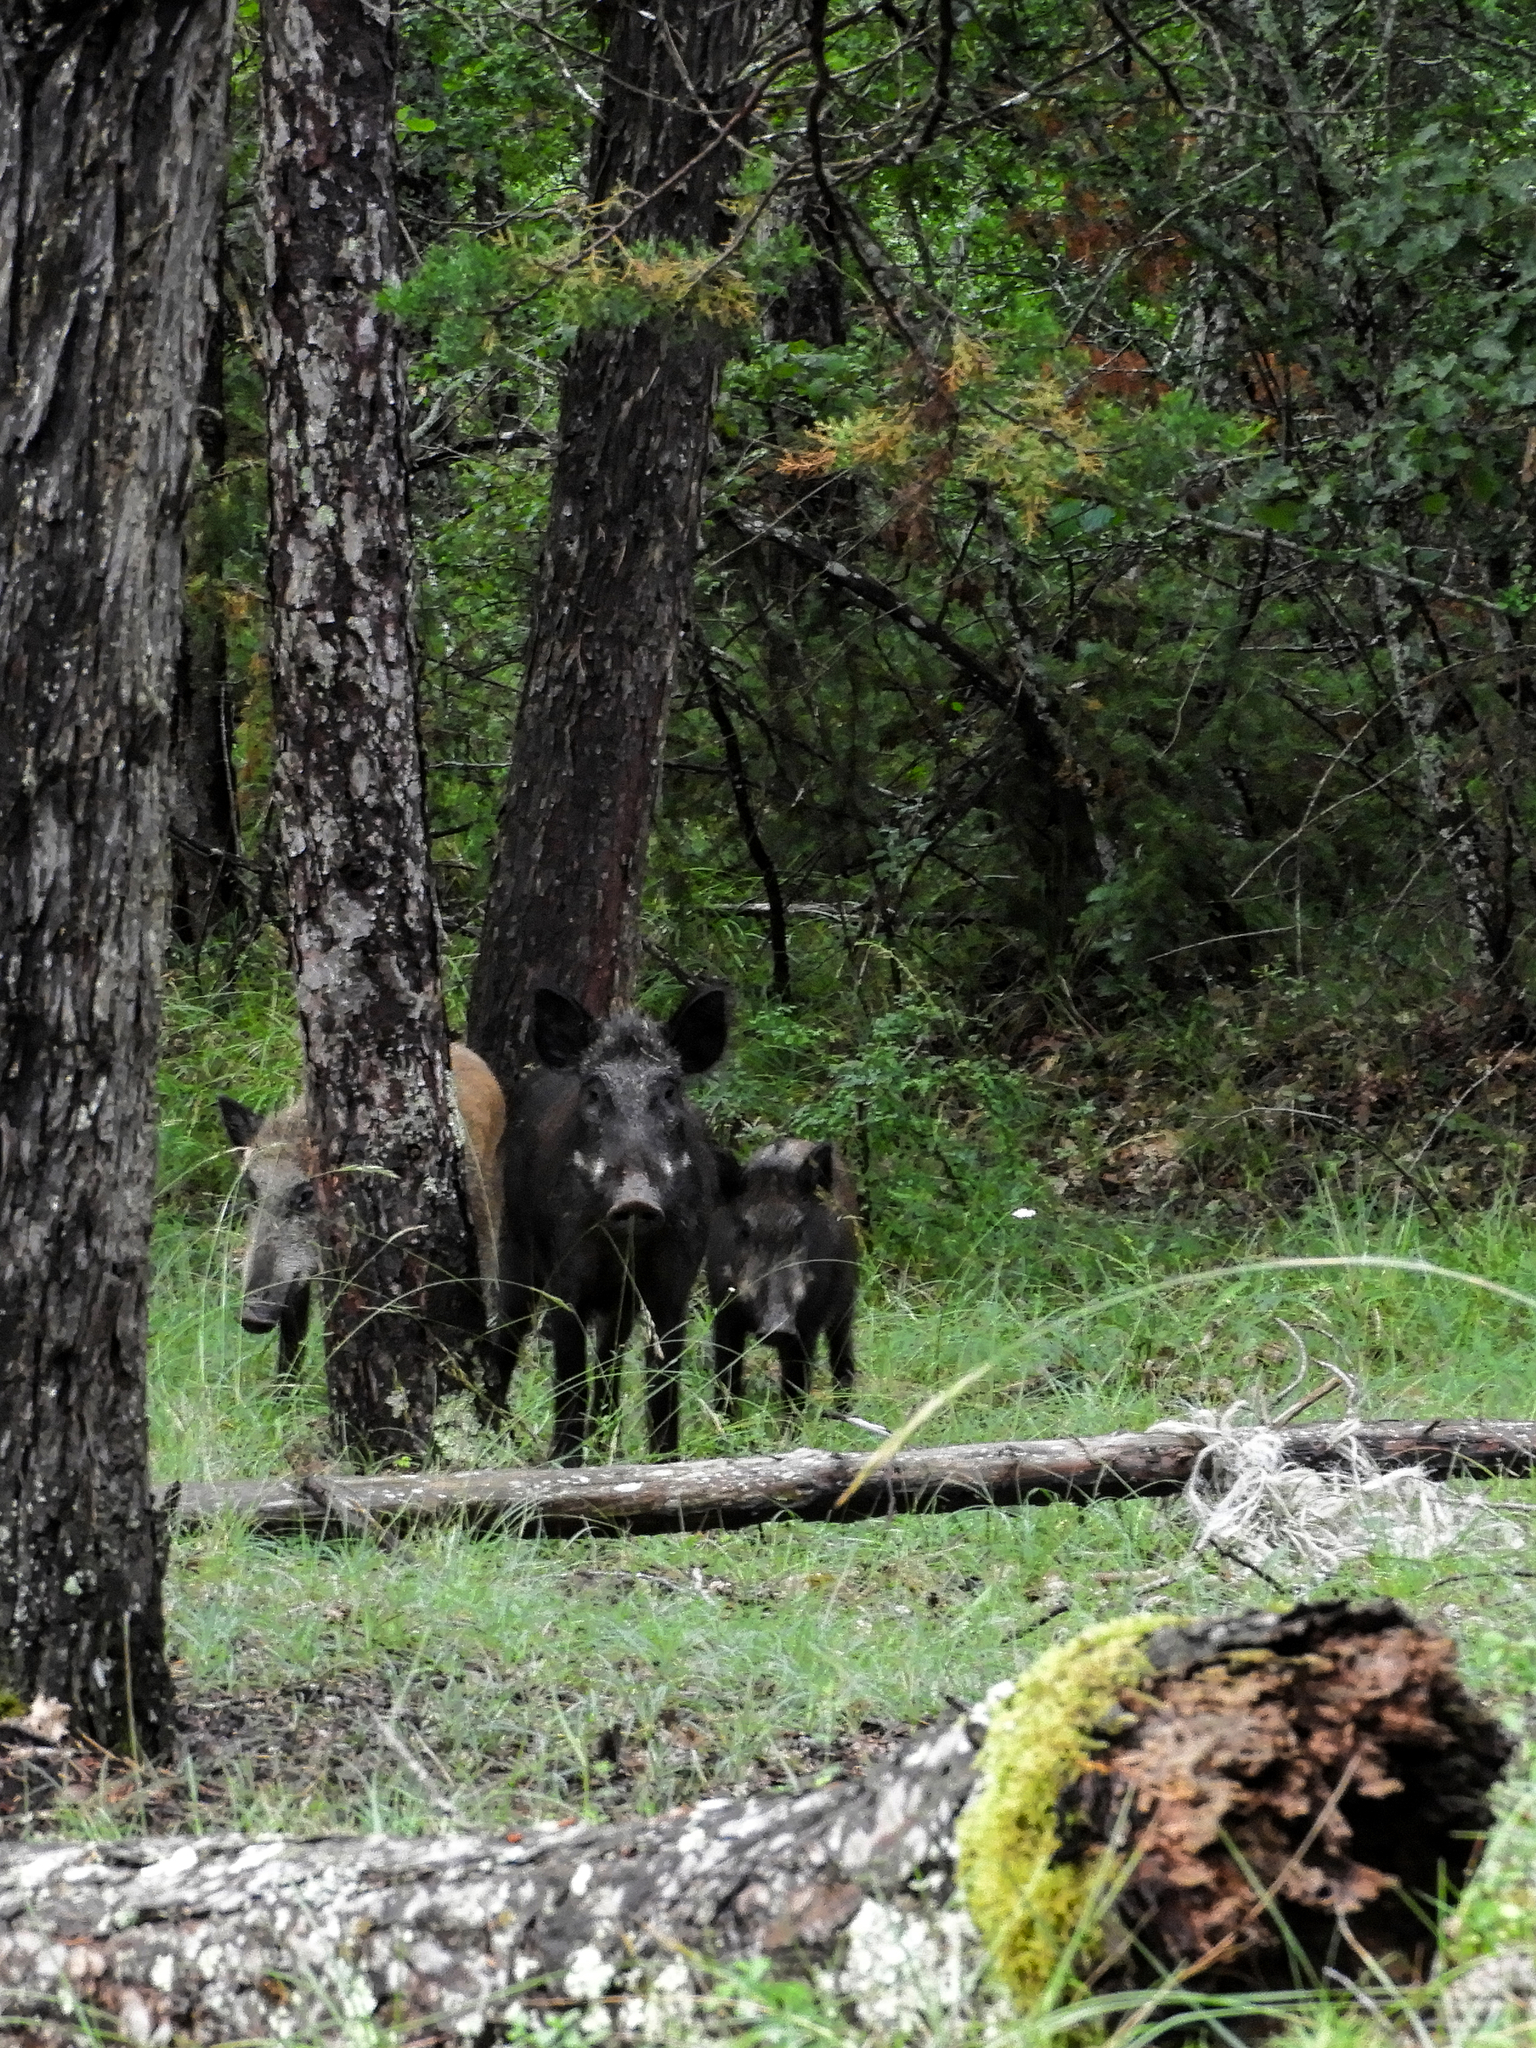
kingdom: Animalia
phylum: Chordata
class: Mammalia
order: Artiodactyla
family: Suidae
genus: Sus
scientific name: Sus scrofa
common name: Wild boar
